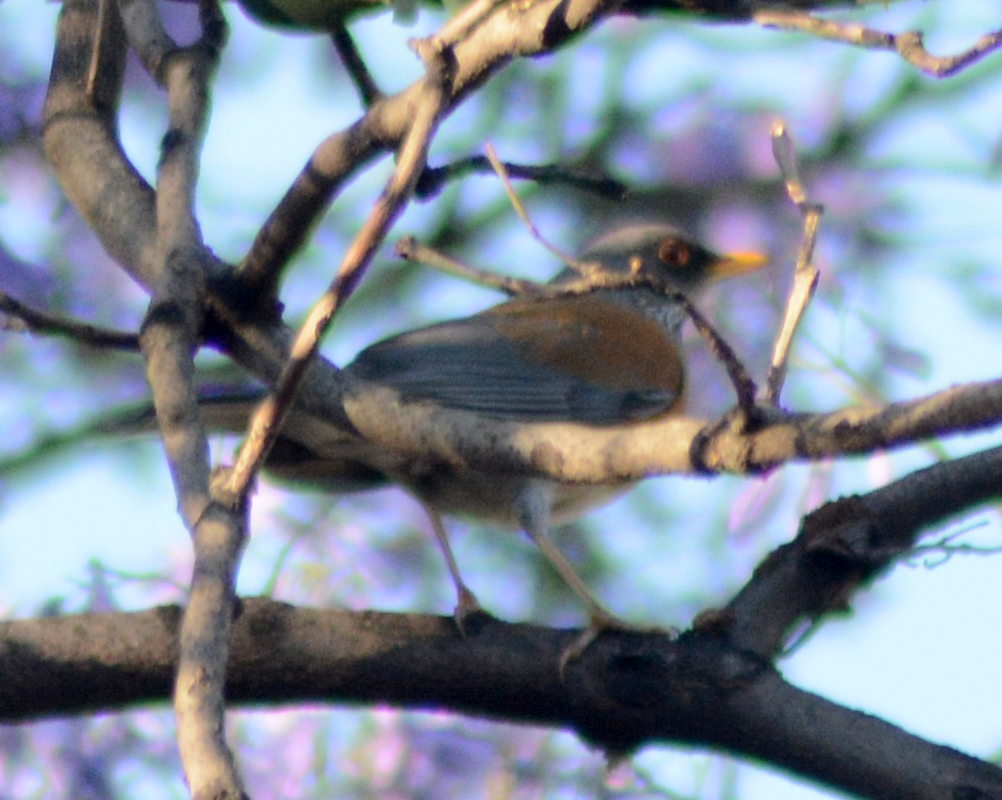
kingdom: Animalia
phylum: Chordata
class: Aves
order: Passeriformes
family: Turdidae
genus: Turdus
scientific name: Turdus rufopalliatus
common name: Rufous-backed robin
